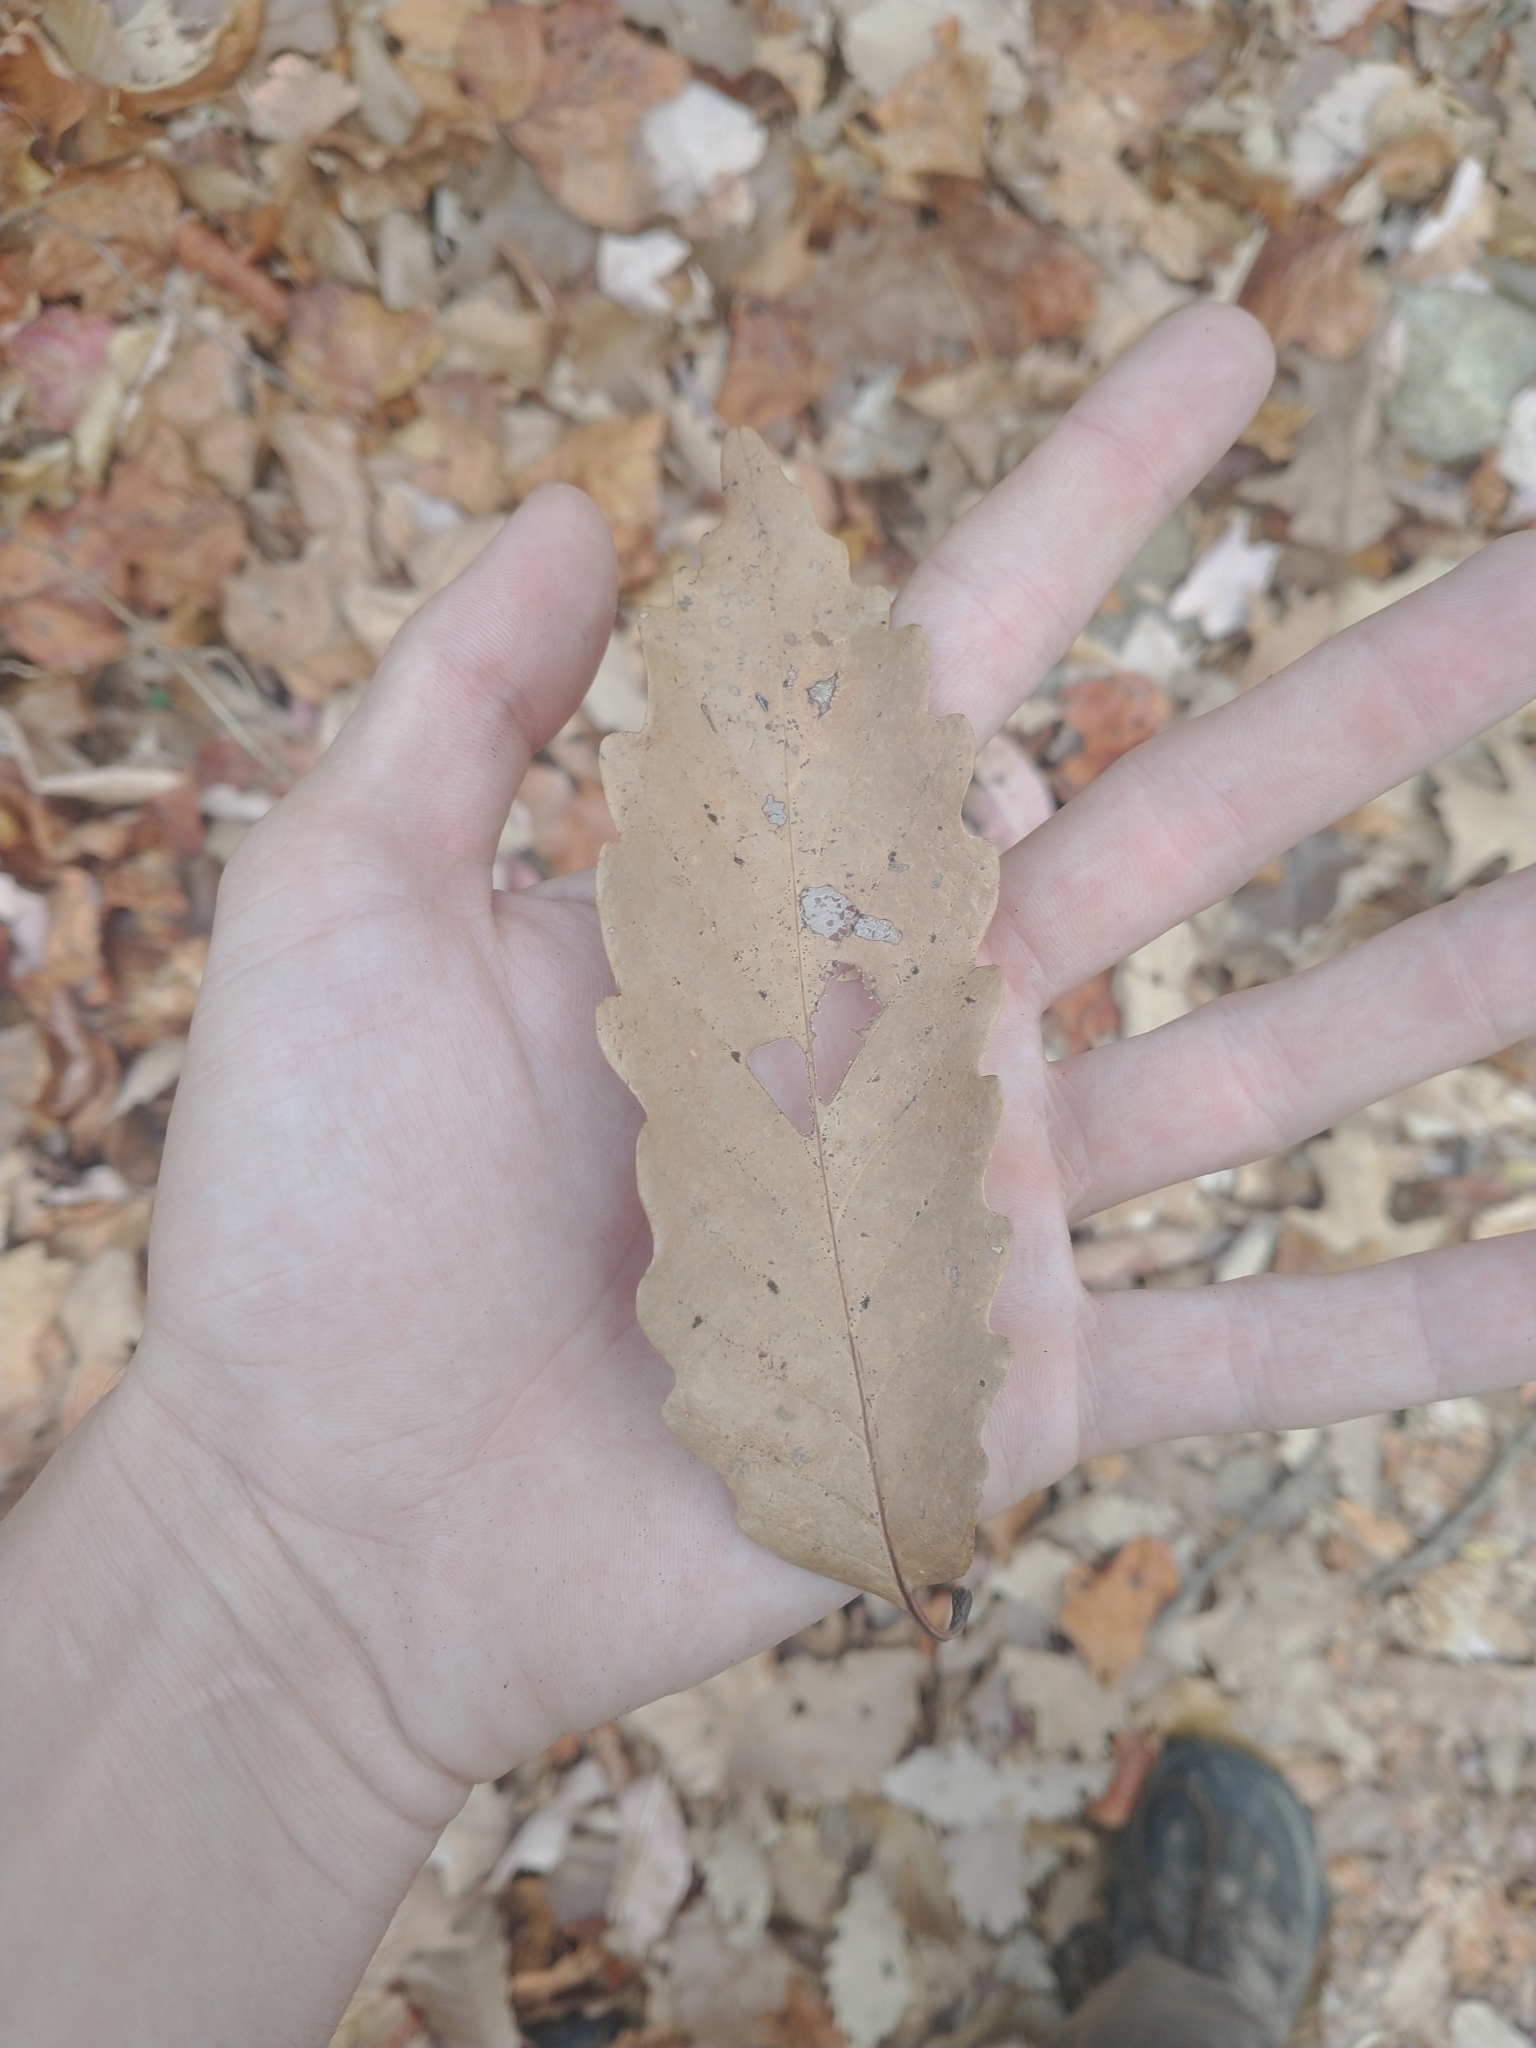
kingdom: Plantae
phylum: Tracheophyta
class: Magnoliopsida
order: Fagales
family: Fagaceae
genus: Quercus
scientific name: Quercus montana
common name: Chestnut oak
